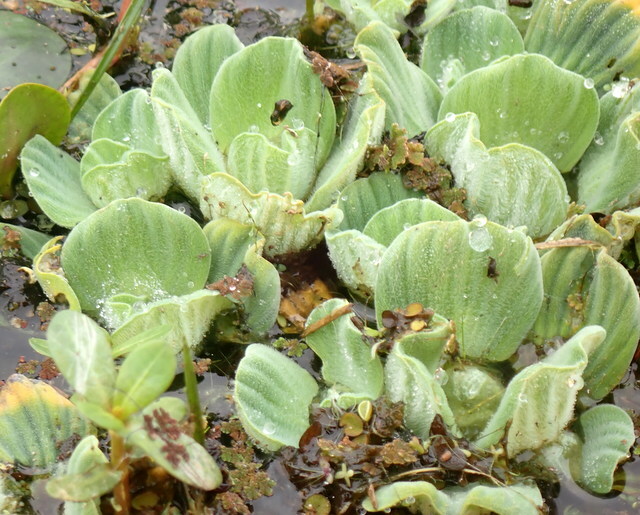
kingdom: Plantae
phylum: Tracheophyta
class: Liliopsida
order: Alismatales
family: Araceae
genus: Pistia
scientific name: Pistia stratiotes
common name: Water lettuce
